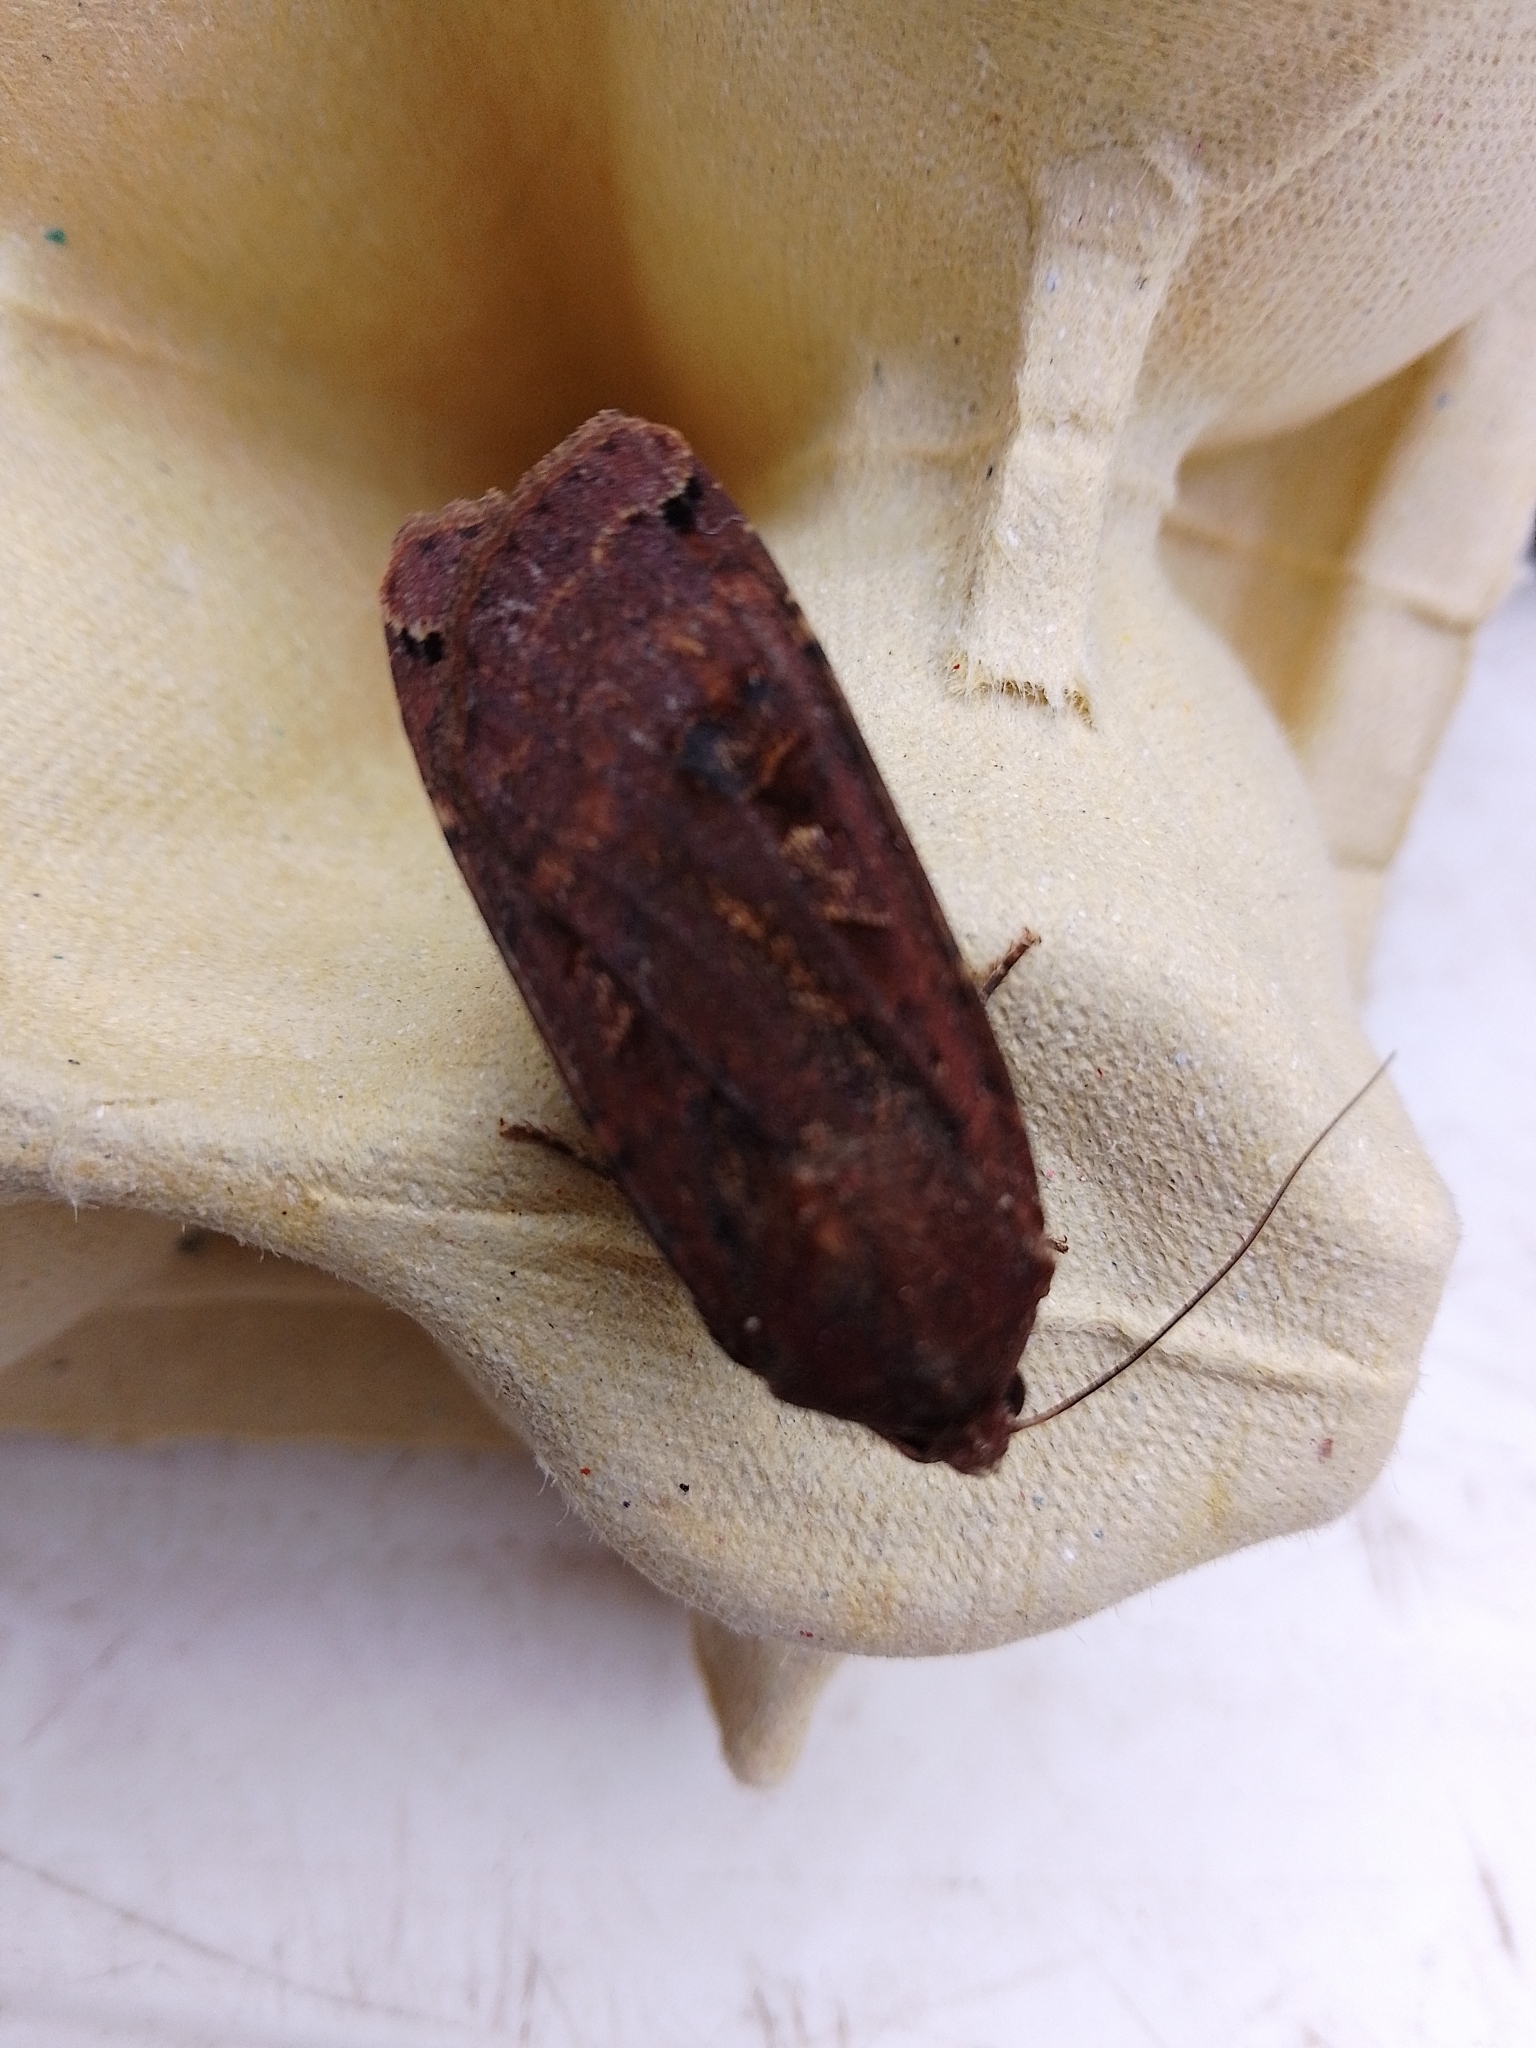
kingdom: Animalia
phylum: Arthropoda
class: Insecta
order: Lepidoptera
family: Noctuidae
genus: Noctua
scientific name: Noctua pronuba
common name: Large yellow underwing
